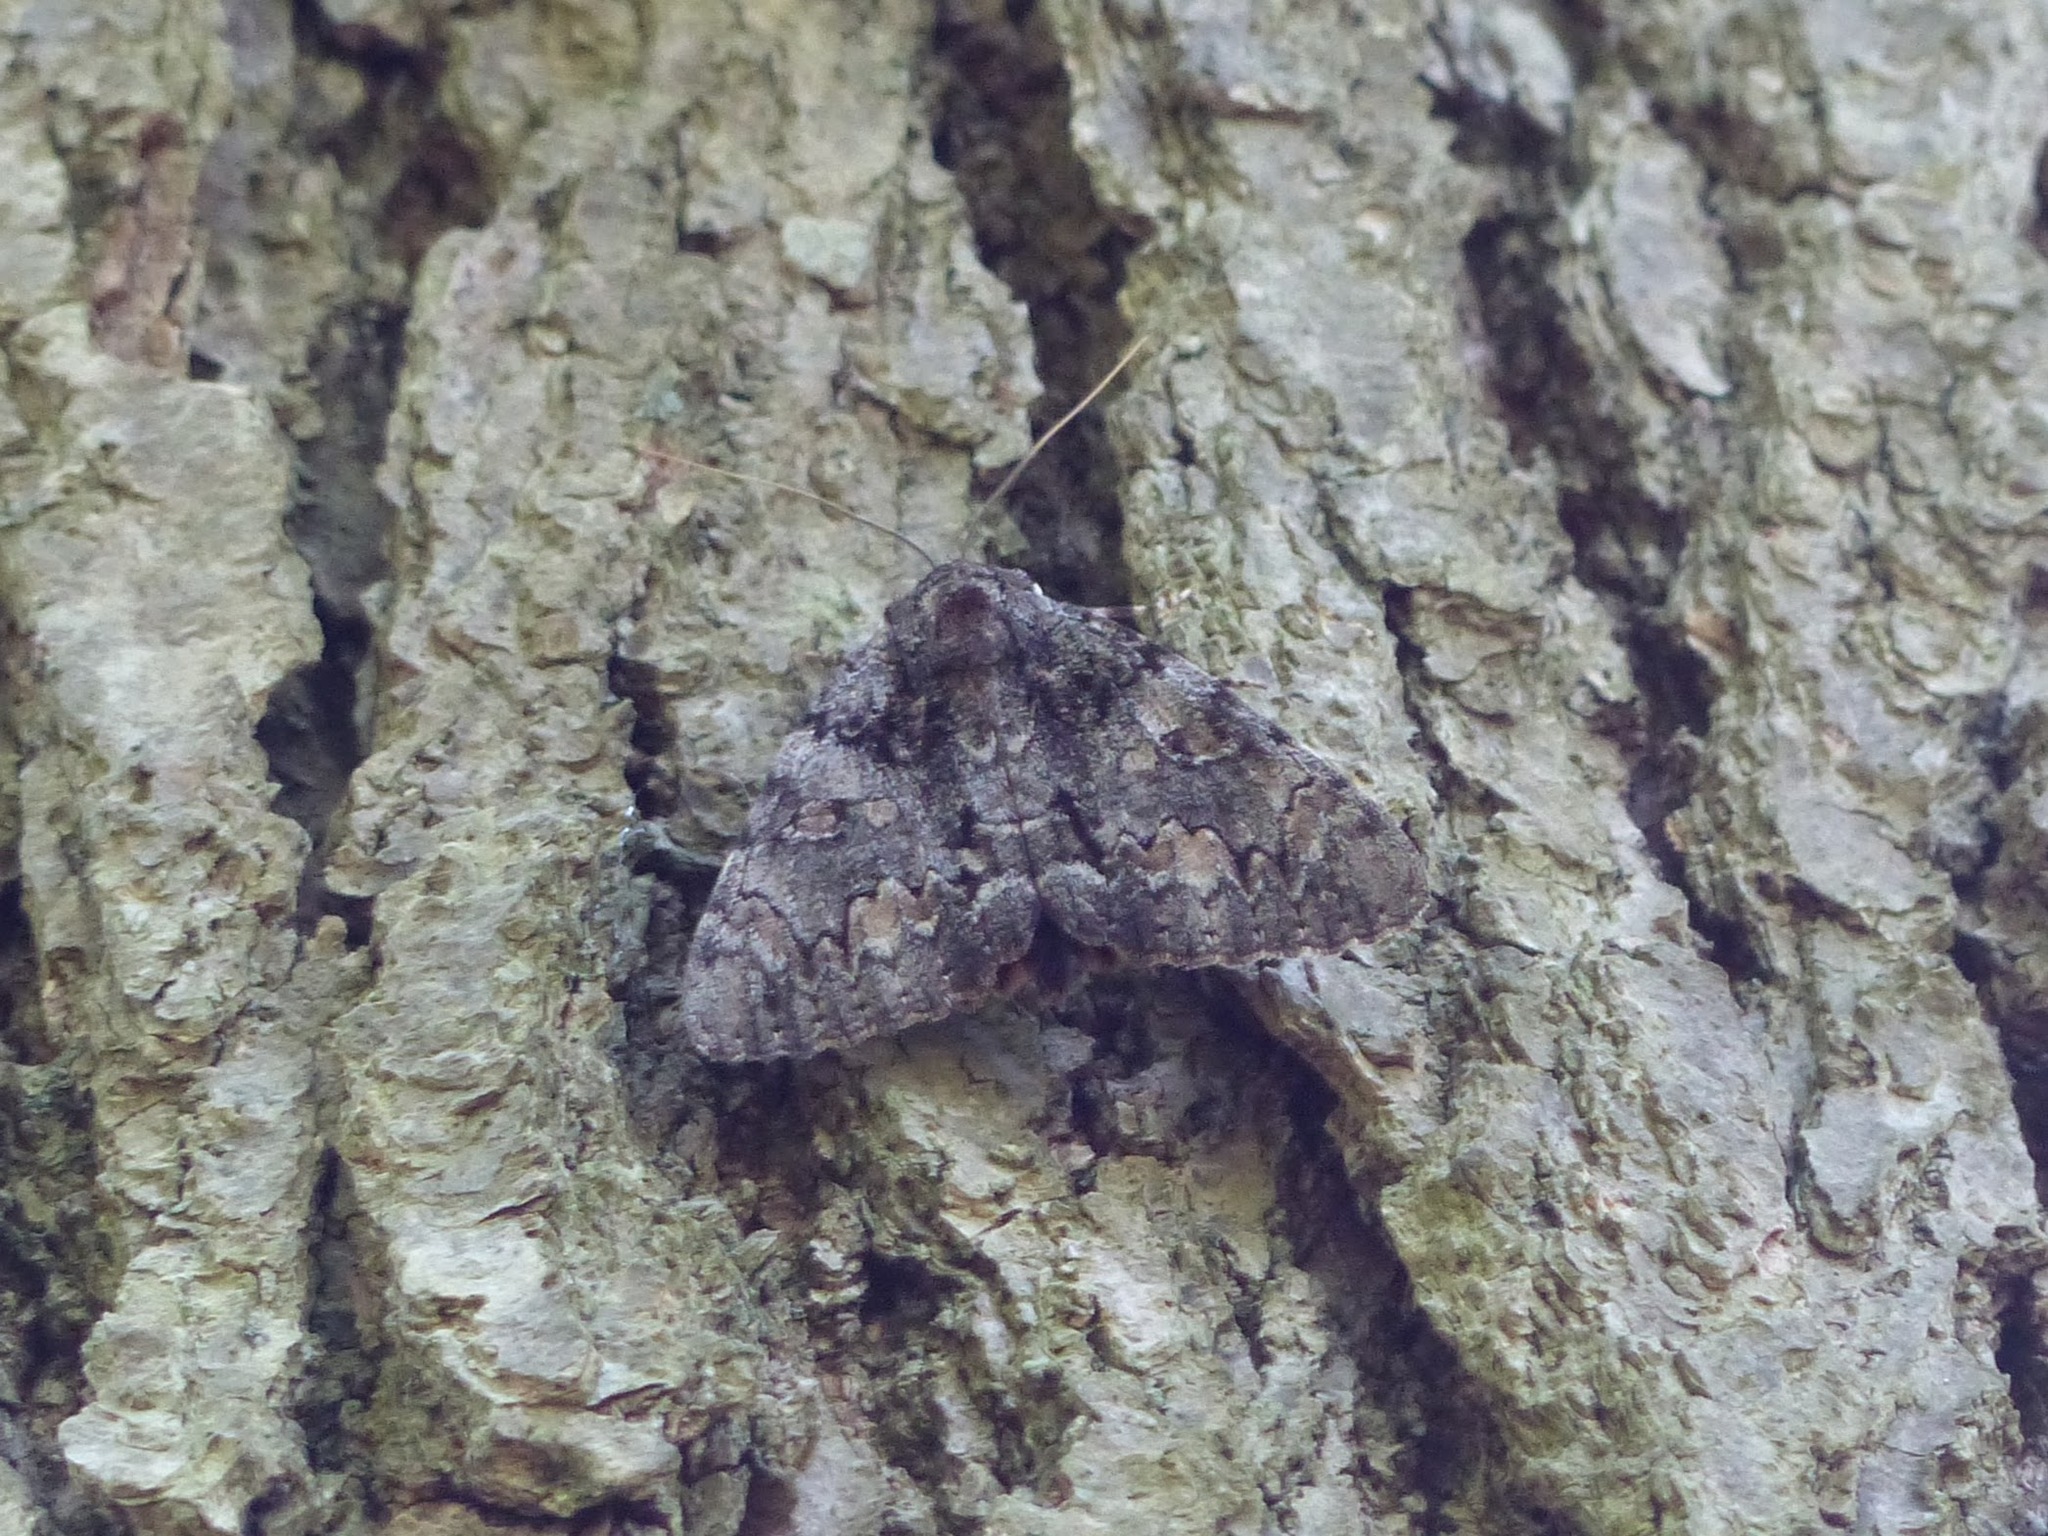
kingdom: Animalia
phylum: Arthropoda
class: Insecta
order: Lepidoptera
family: Erebidae
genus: Catocala
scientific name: Catocala palaeogama
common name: Oldwife underwing
